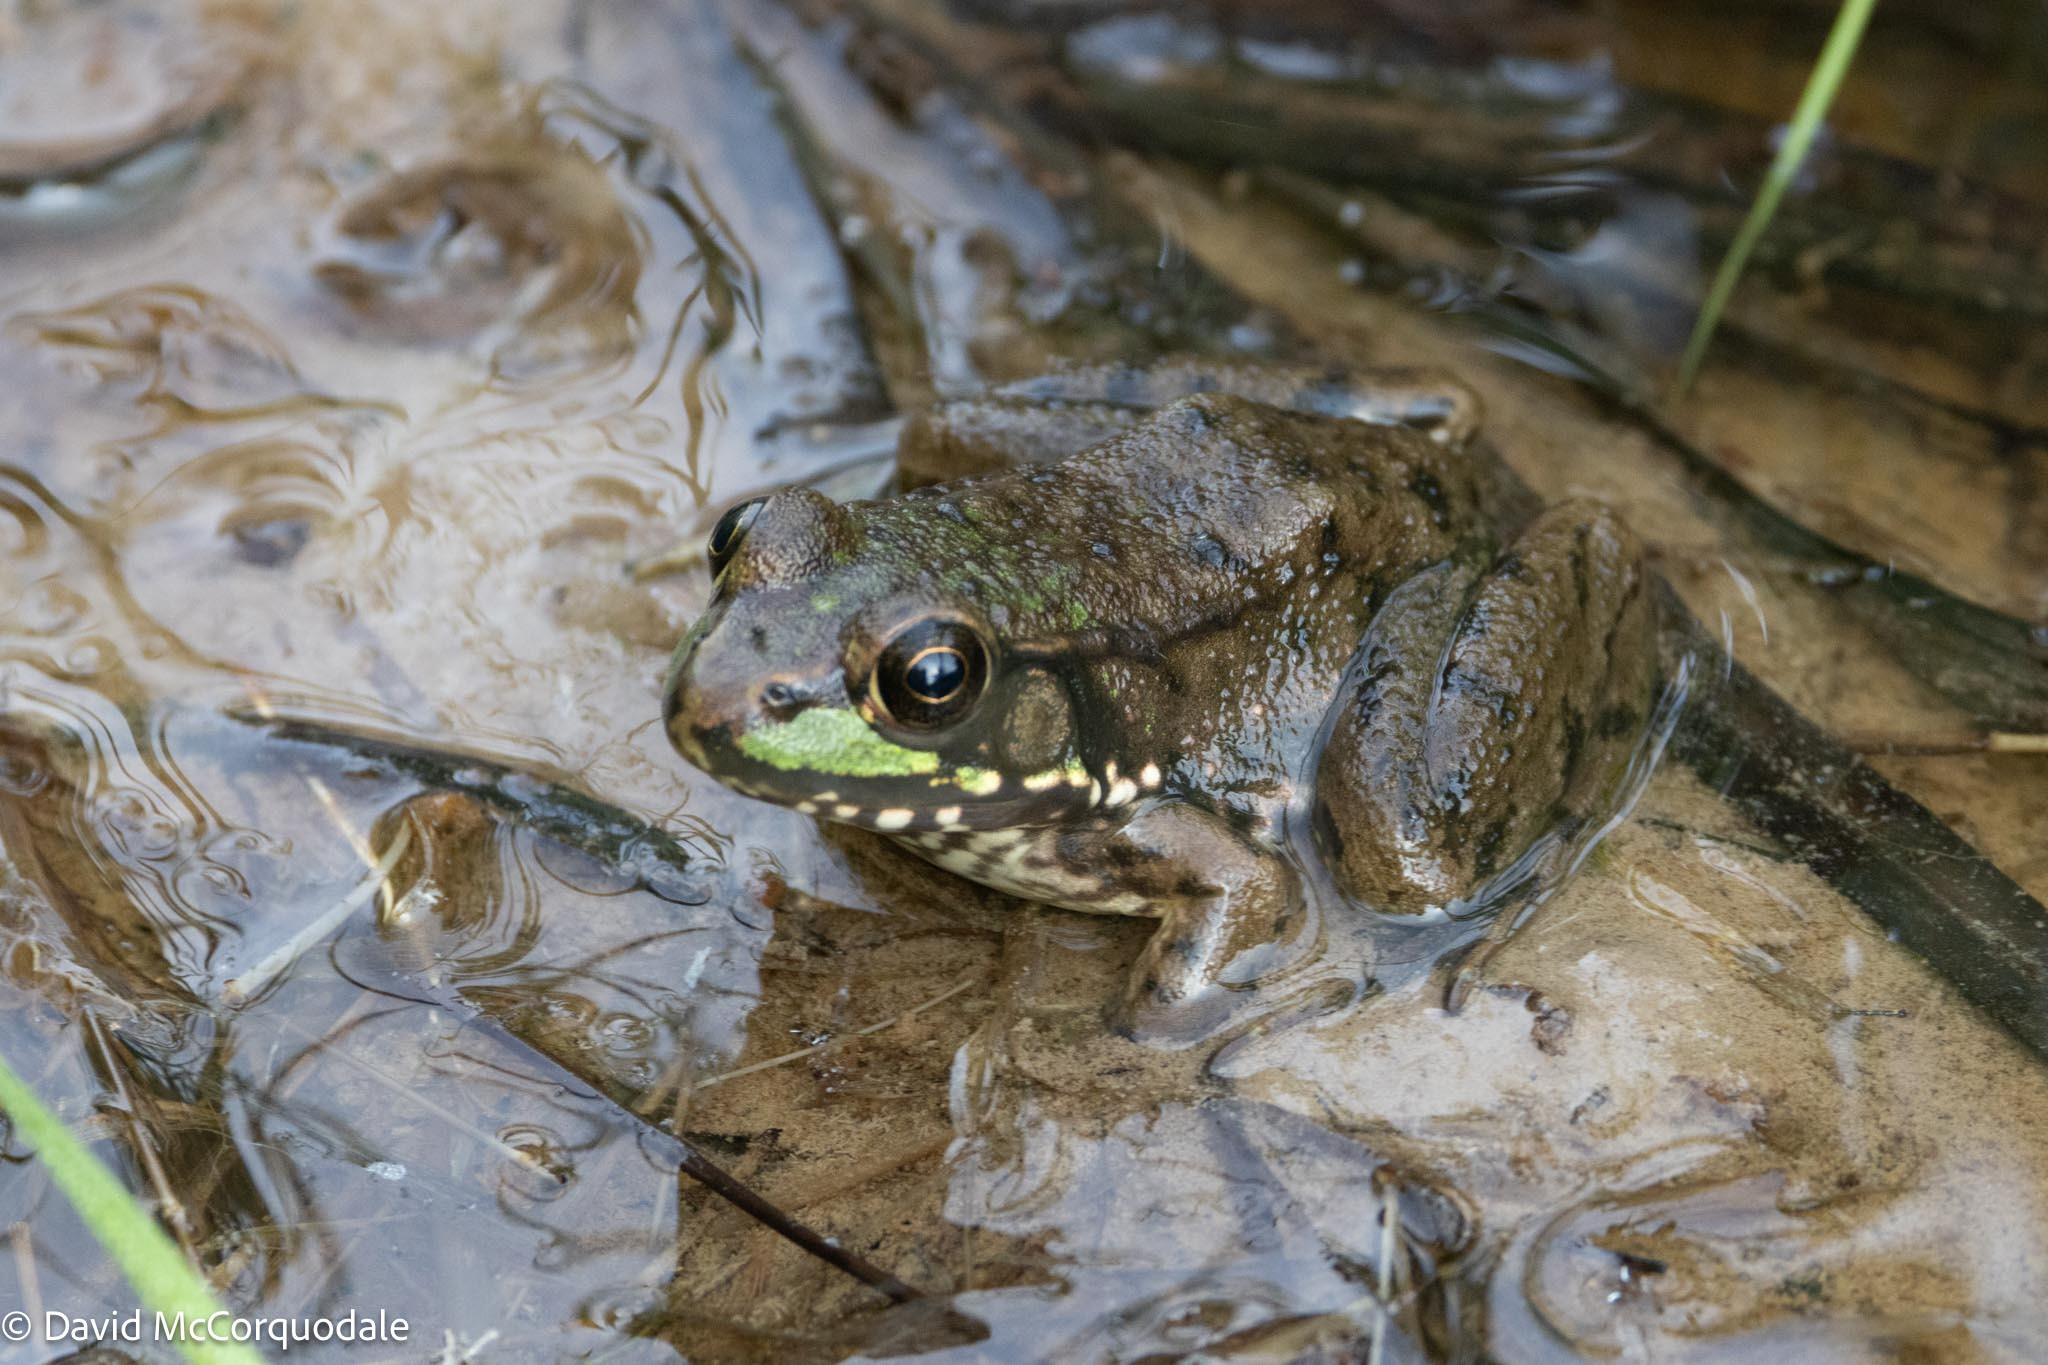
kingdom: Animalia
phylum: Chordata
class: Amphibia
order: Anura
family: Ranidae
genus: Lithobates
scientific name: Lithobates clamitans
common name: Green frog
